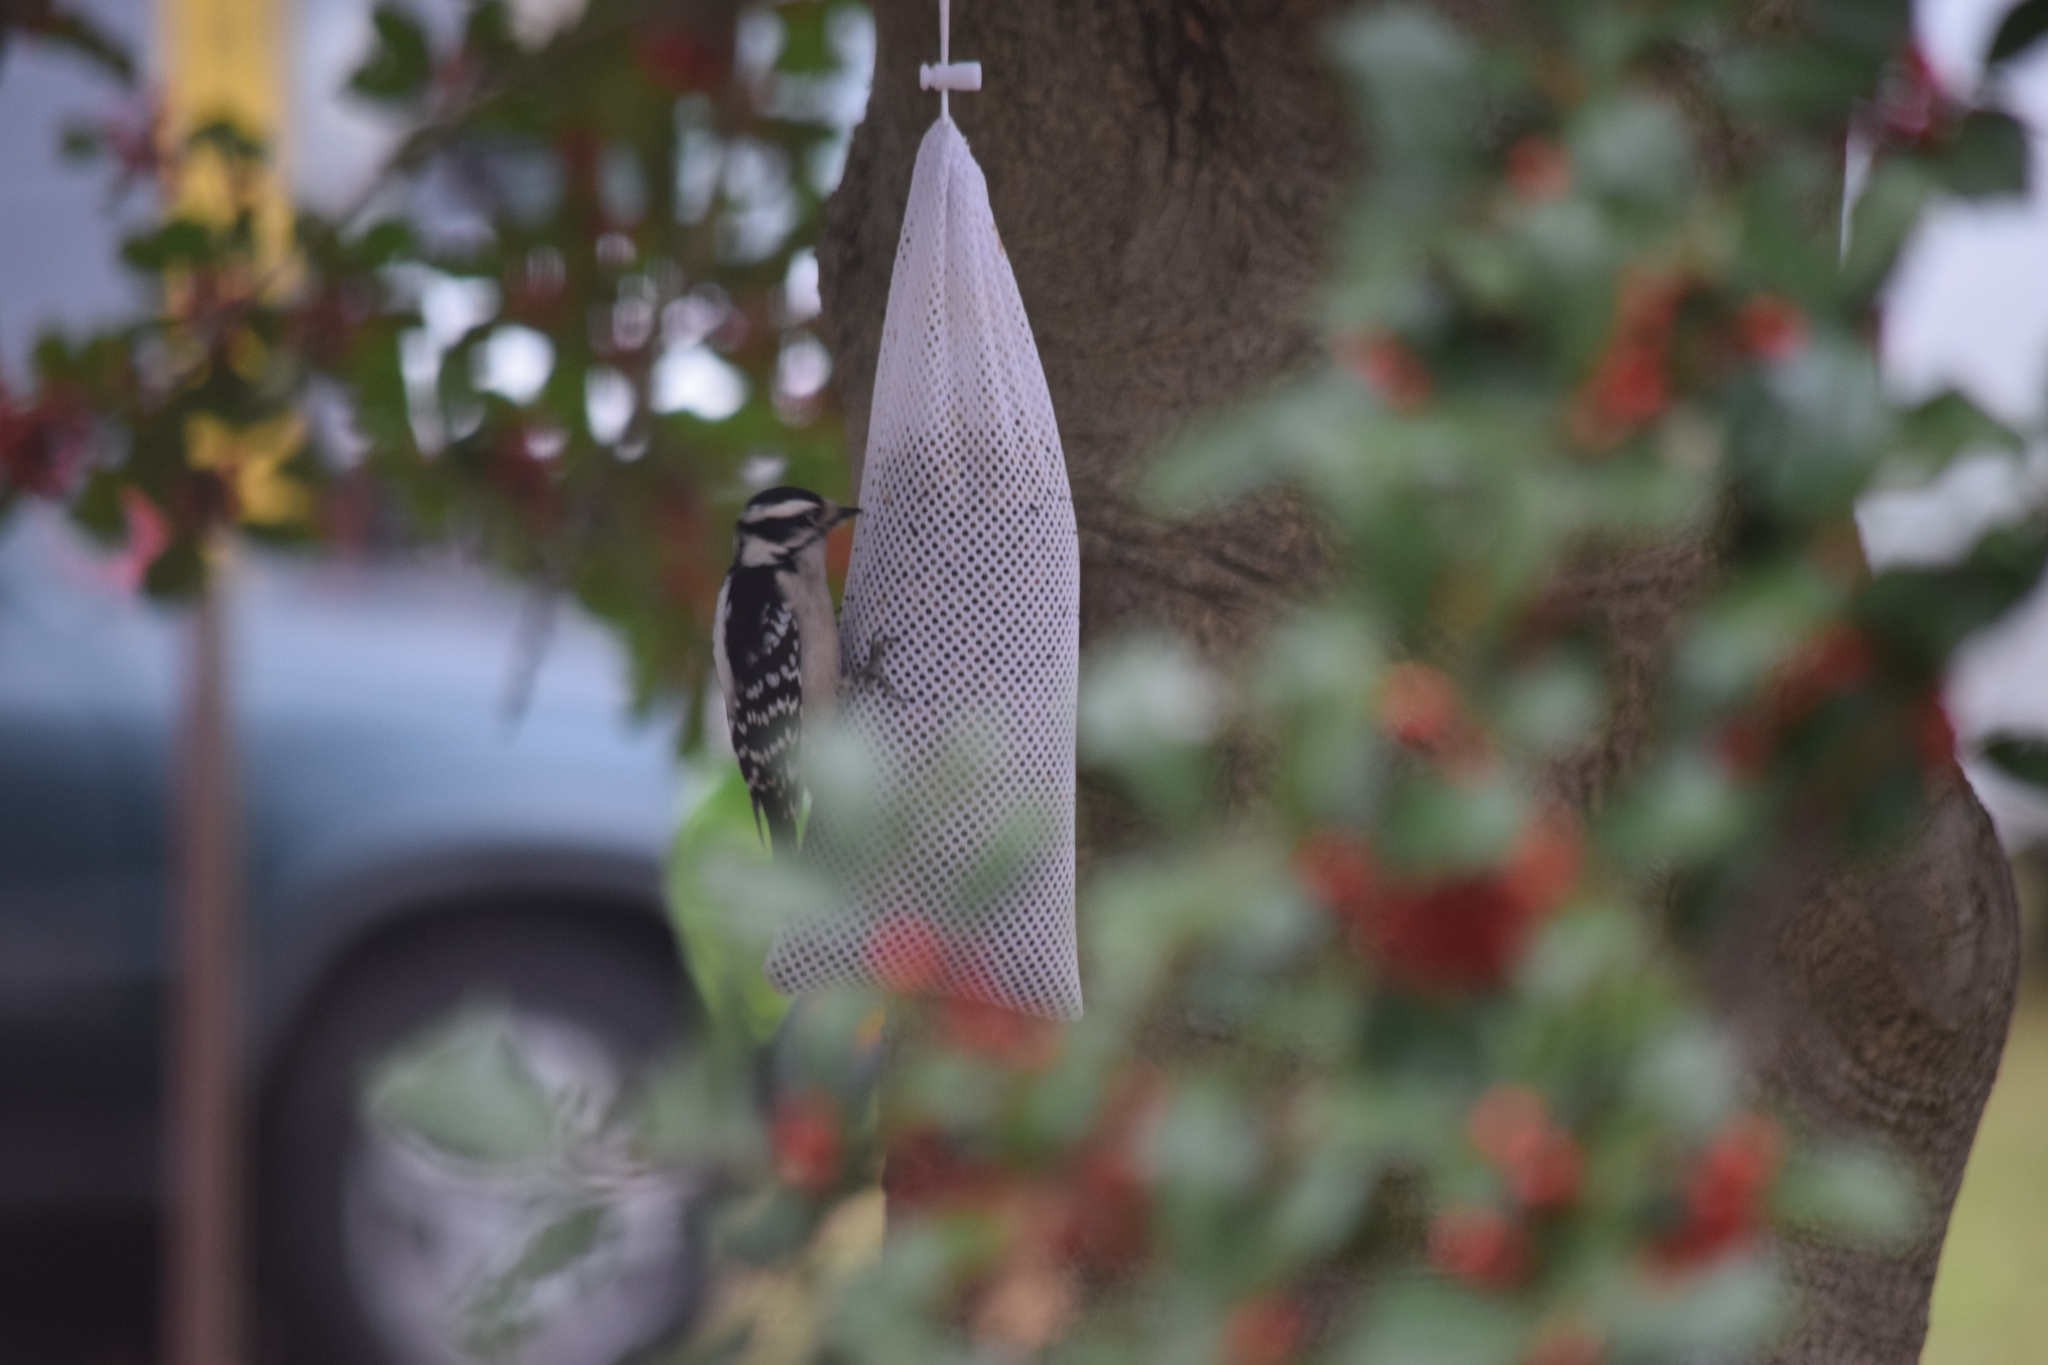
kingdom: Animalia
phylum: Chordata
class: Aves
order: Piciformes
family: Picidae
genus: Dryobates
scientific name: Dryobates pubescens
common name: Downy woodpecker
